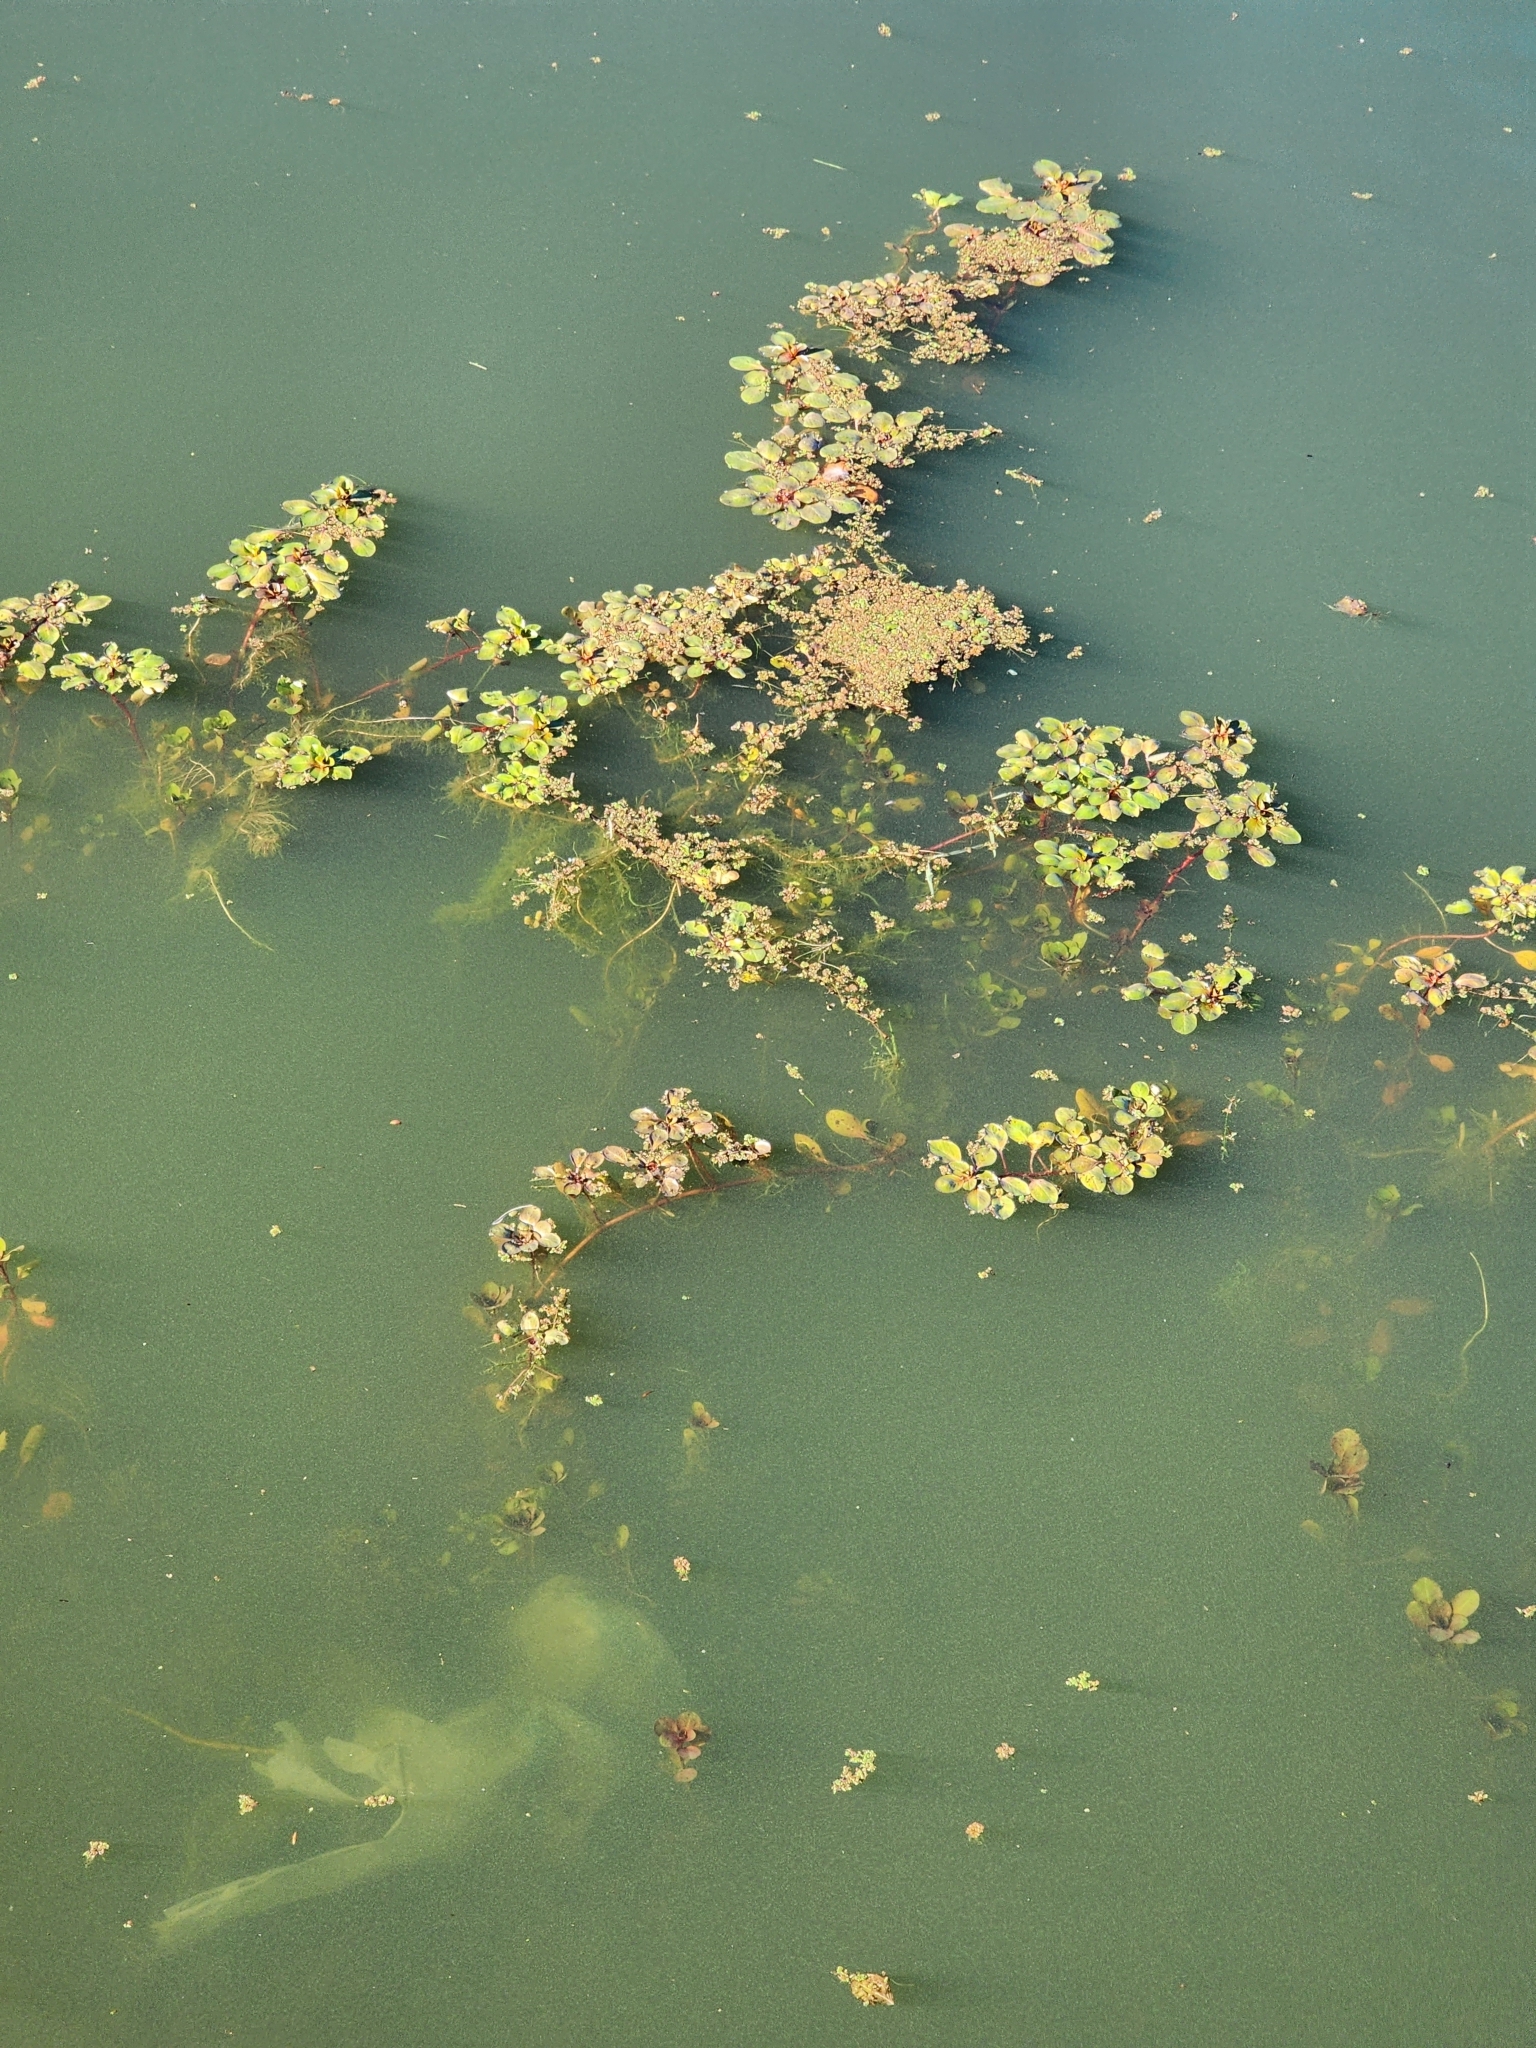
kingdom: Plantae
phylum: Tracheophyta
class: Liliopsida
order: Alismatales
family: Araceae
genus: Lemna
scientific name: Lemna minor
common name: Common duckweed
